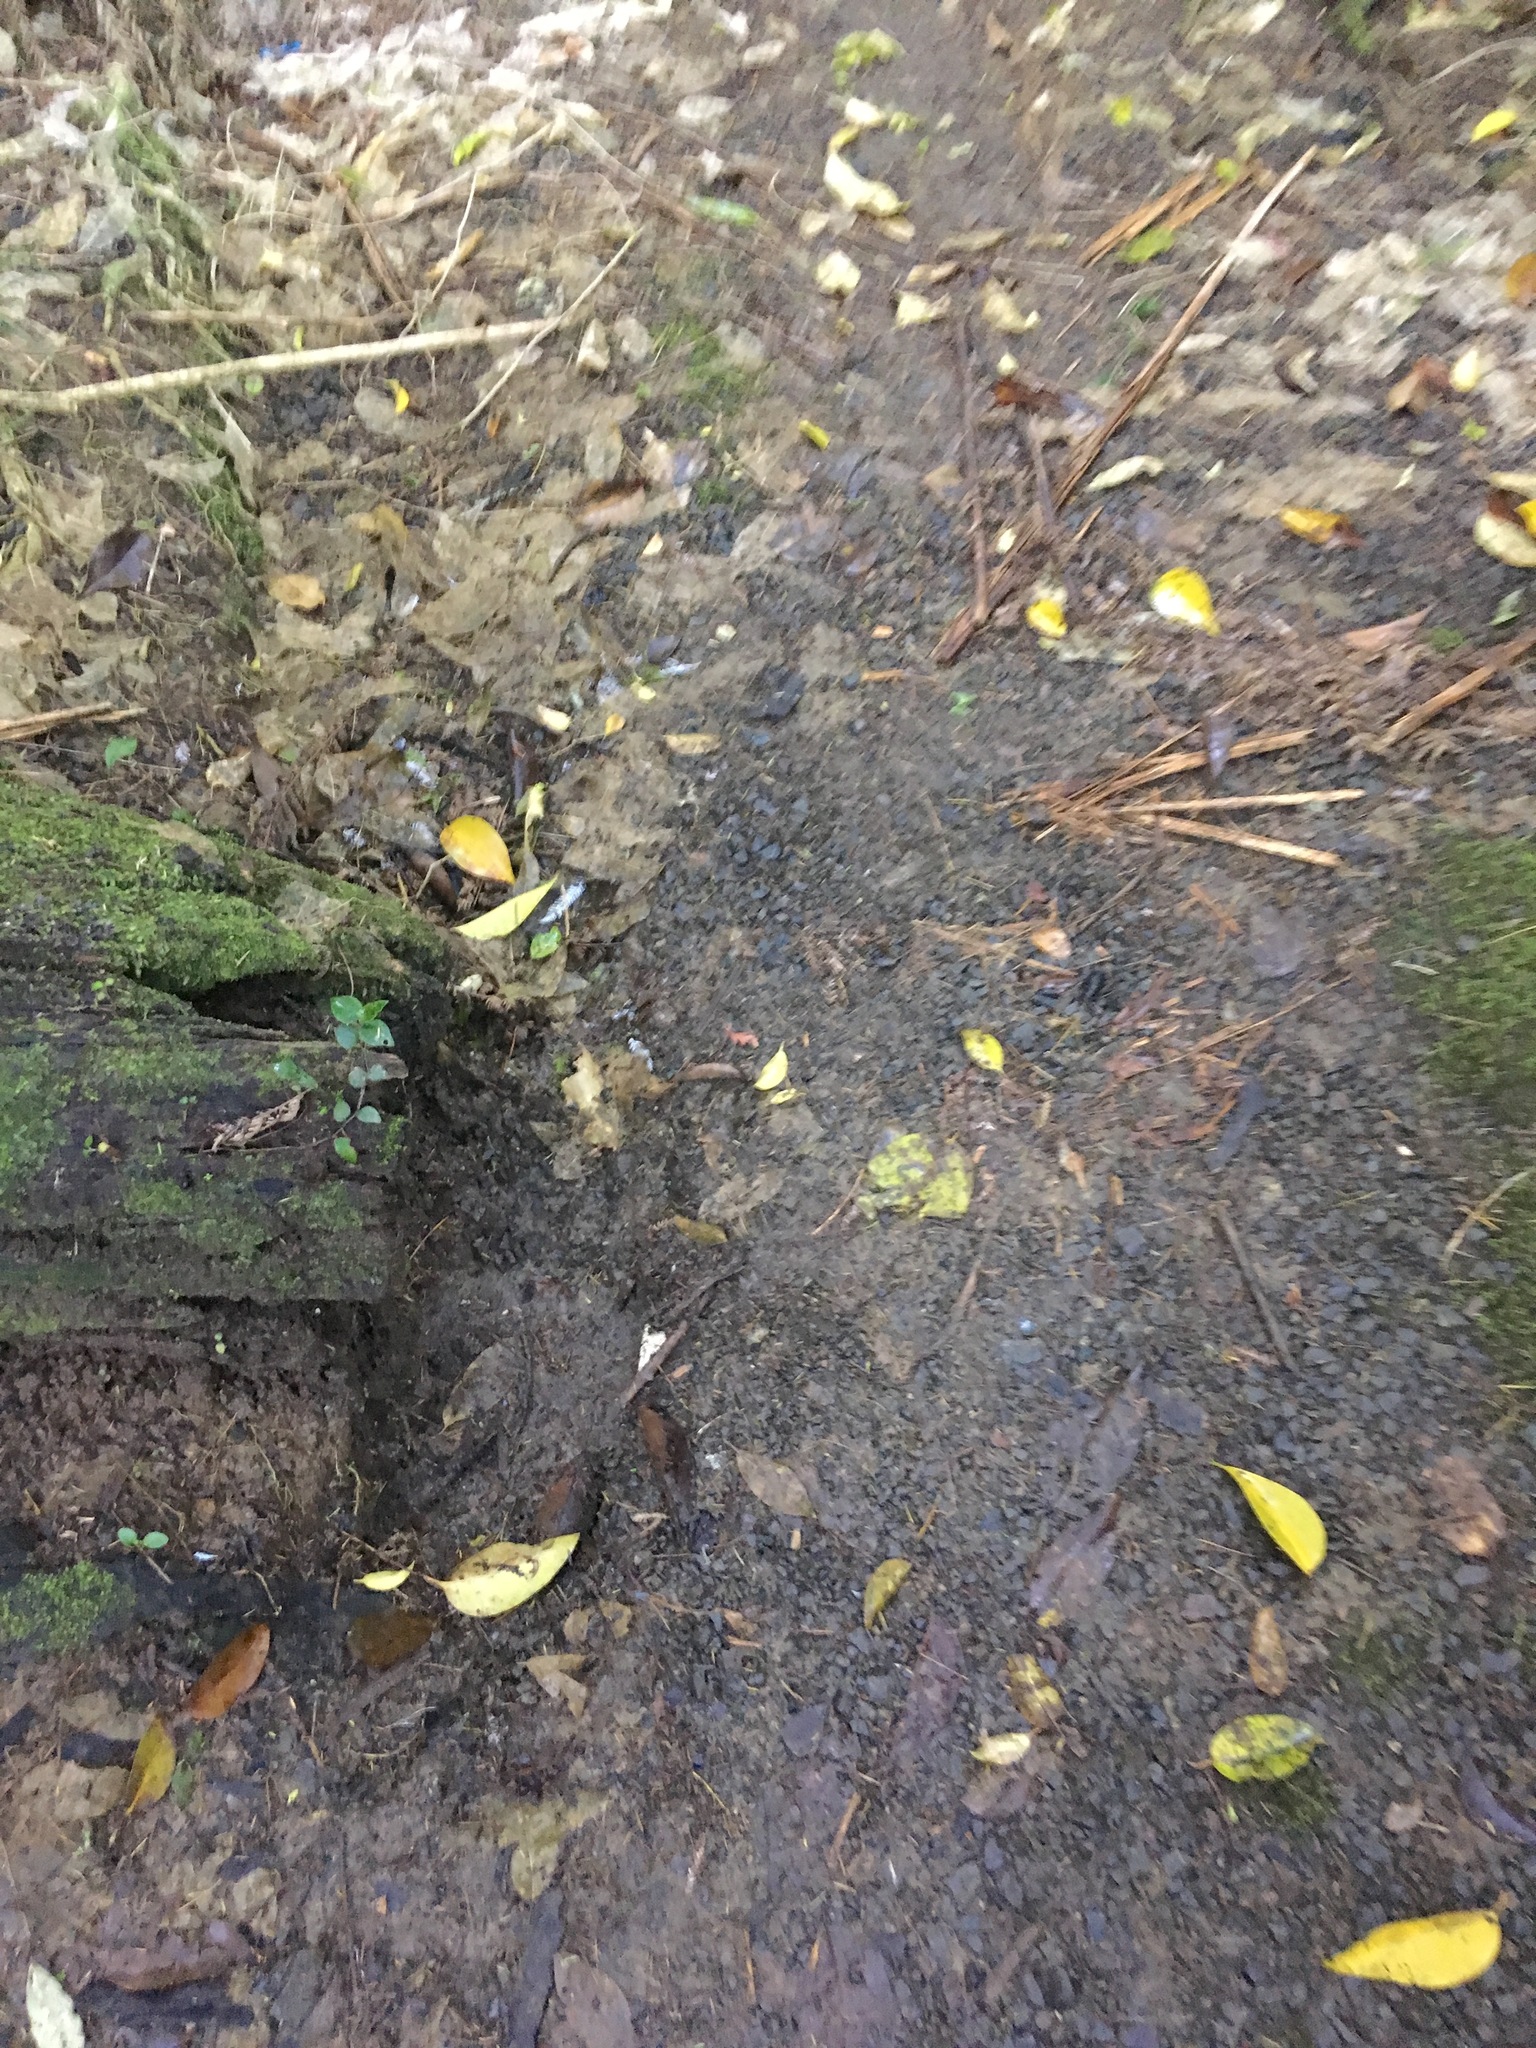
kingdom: Plantae
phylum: Tracheophyta
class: Liliopsida
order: Commelinales
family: Commelinaceae
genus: Tradescantia
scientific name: Tradescantia fluminensis
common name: Wandering-jew
